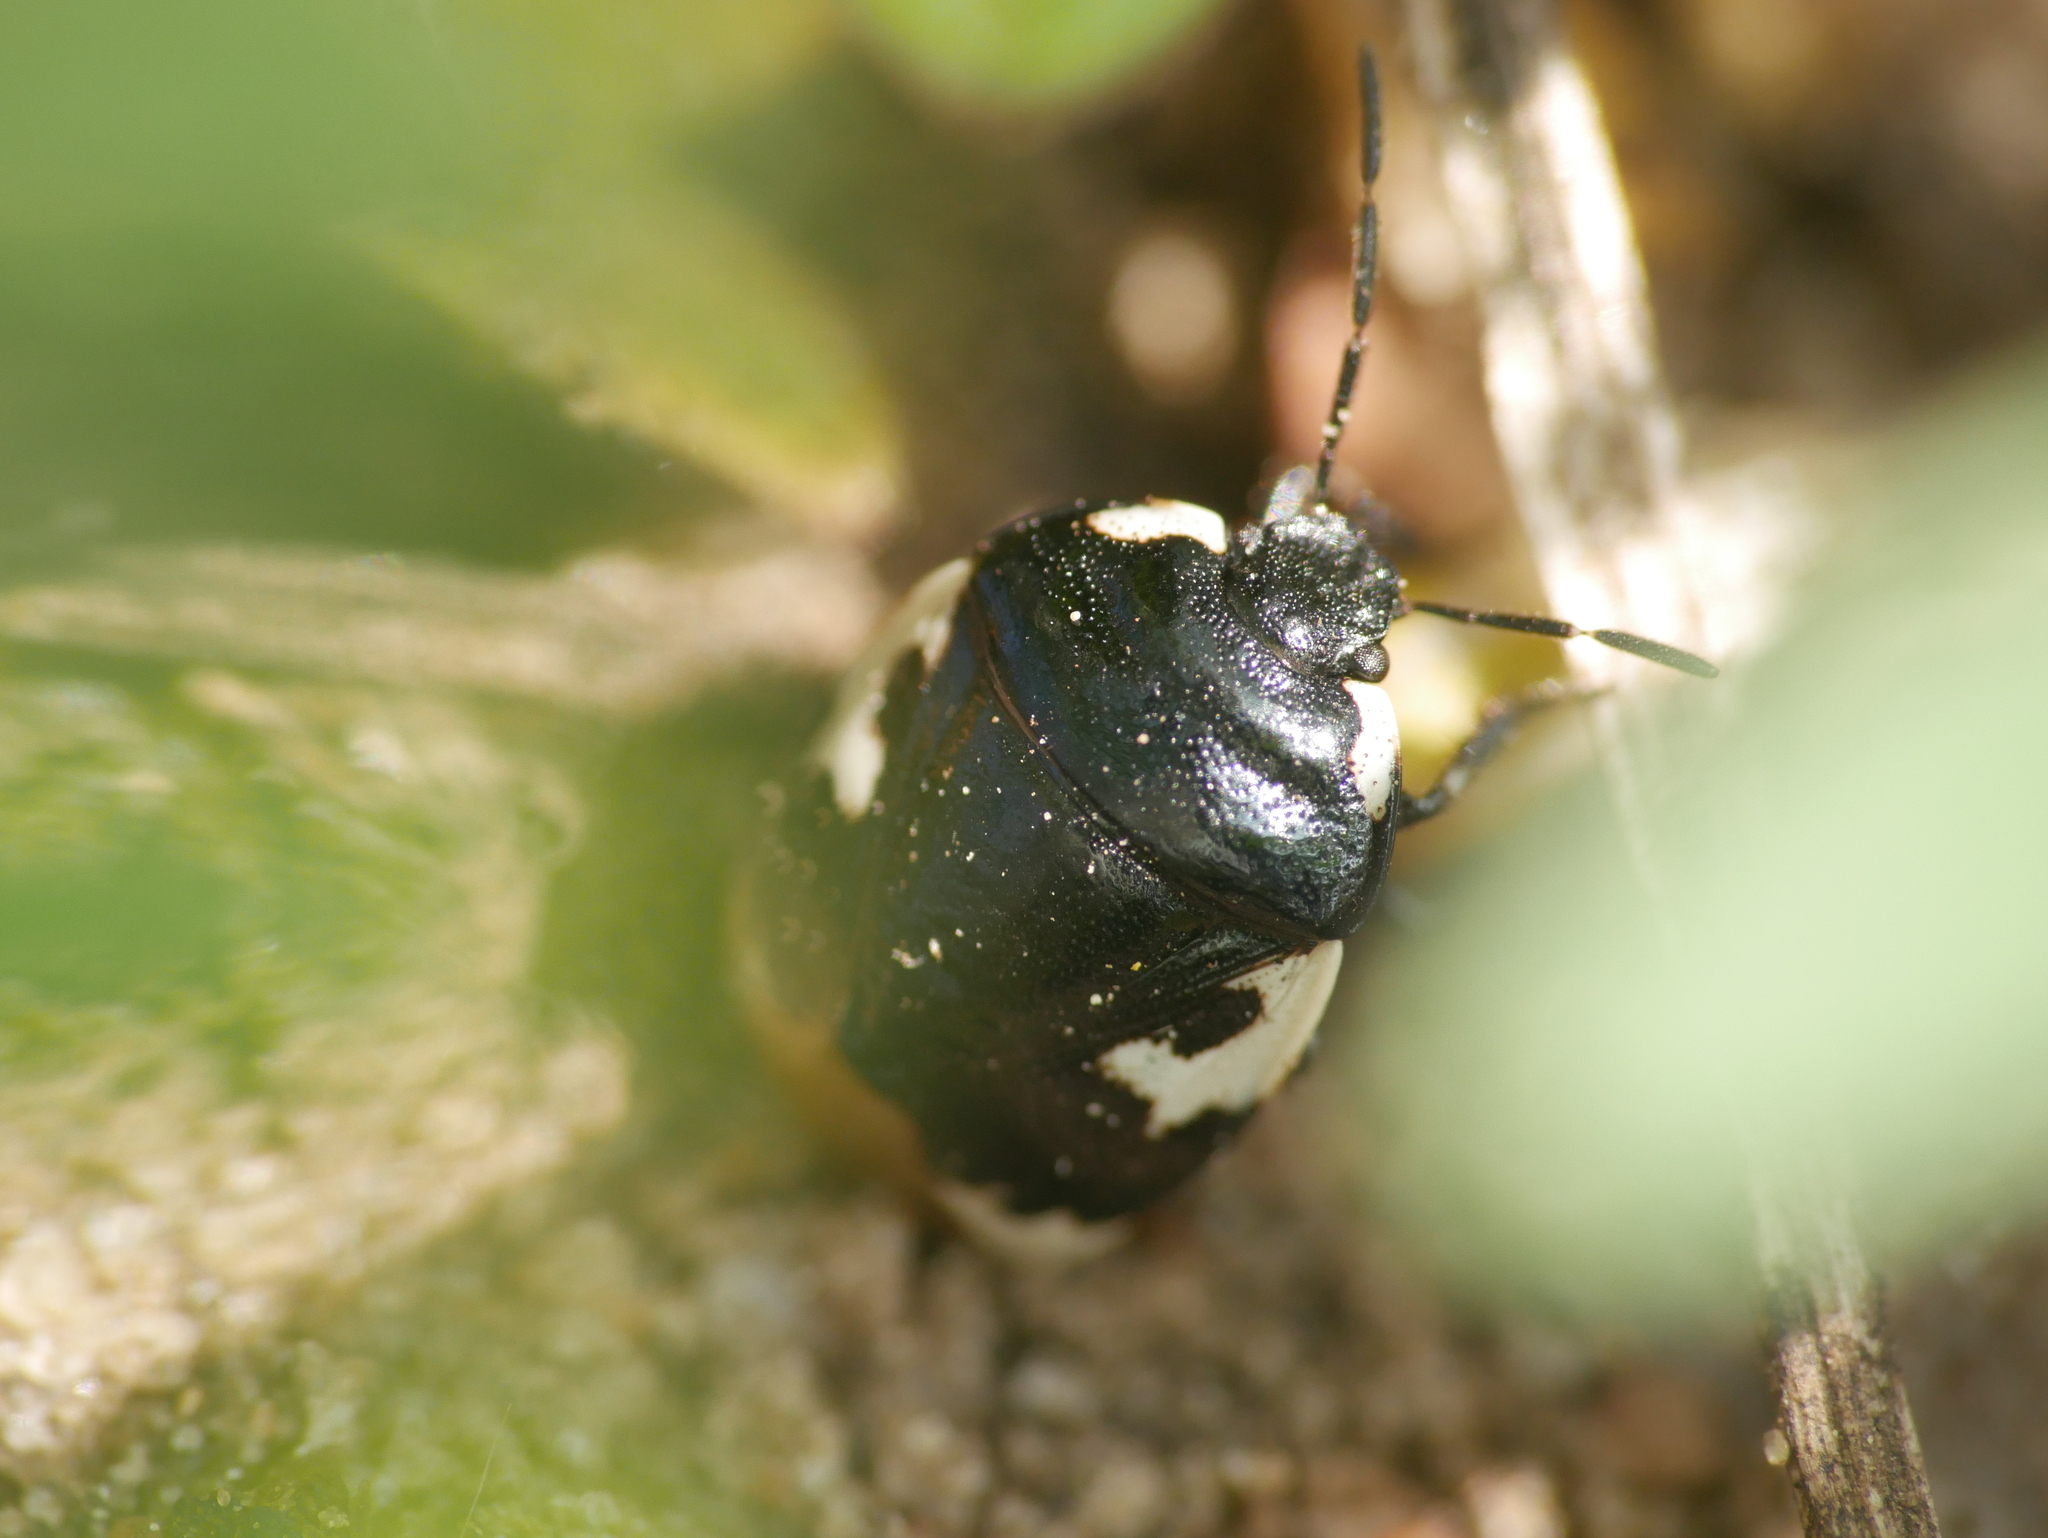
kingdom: Animalia
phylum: Arthropoda
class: Insecta
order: Hemiptera
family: Cydnidae
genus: Tritomegas
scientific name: Tritomegas bicolor
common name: Pied shieldbug
